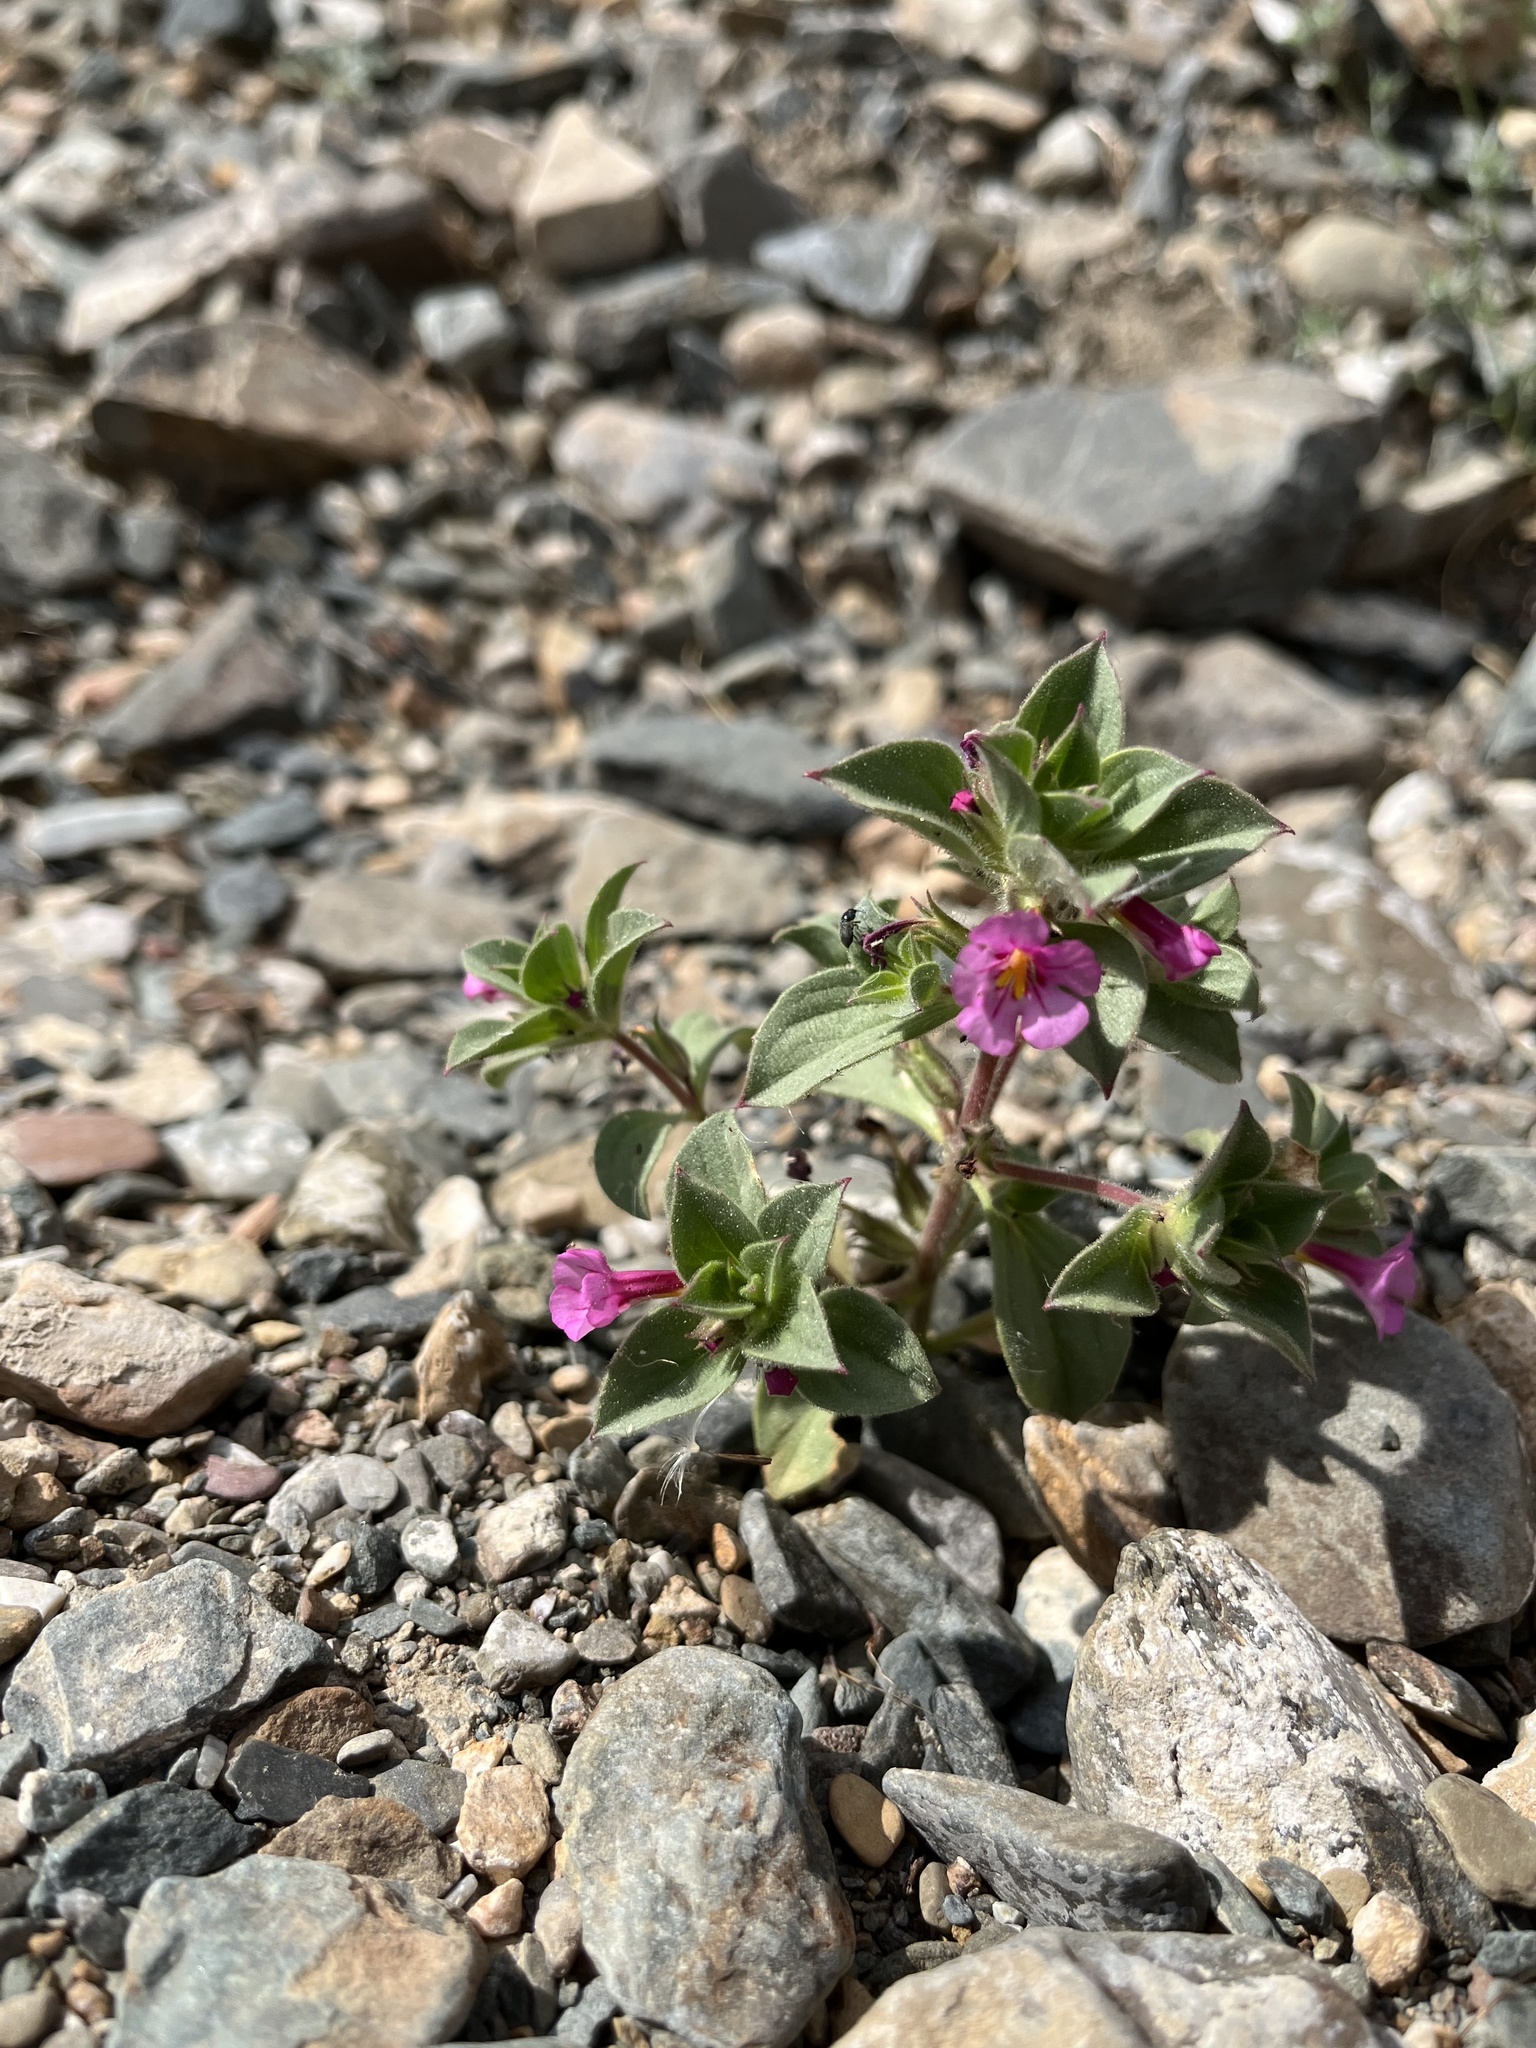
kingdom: Plantae
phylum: Tracheophyta
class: Magnoliopsida
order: Lamiales
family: Phrymaceae
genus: Diplacus
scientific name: Diplacus bigelovii
